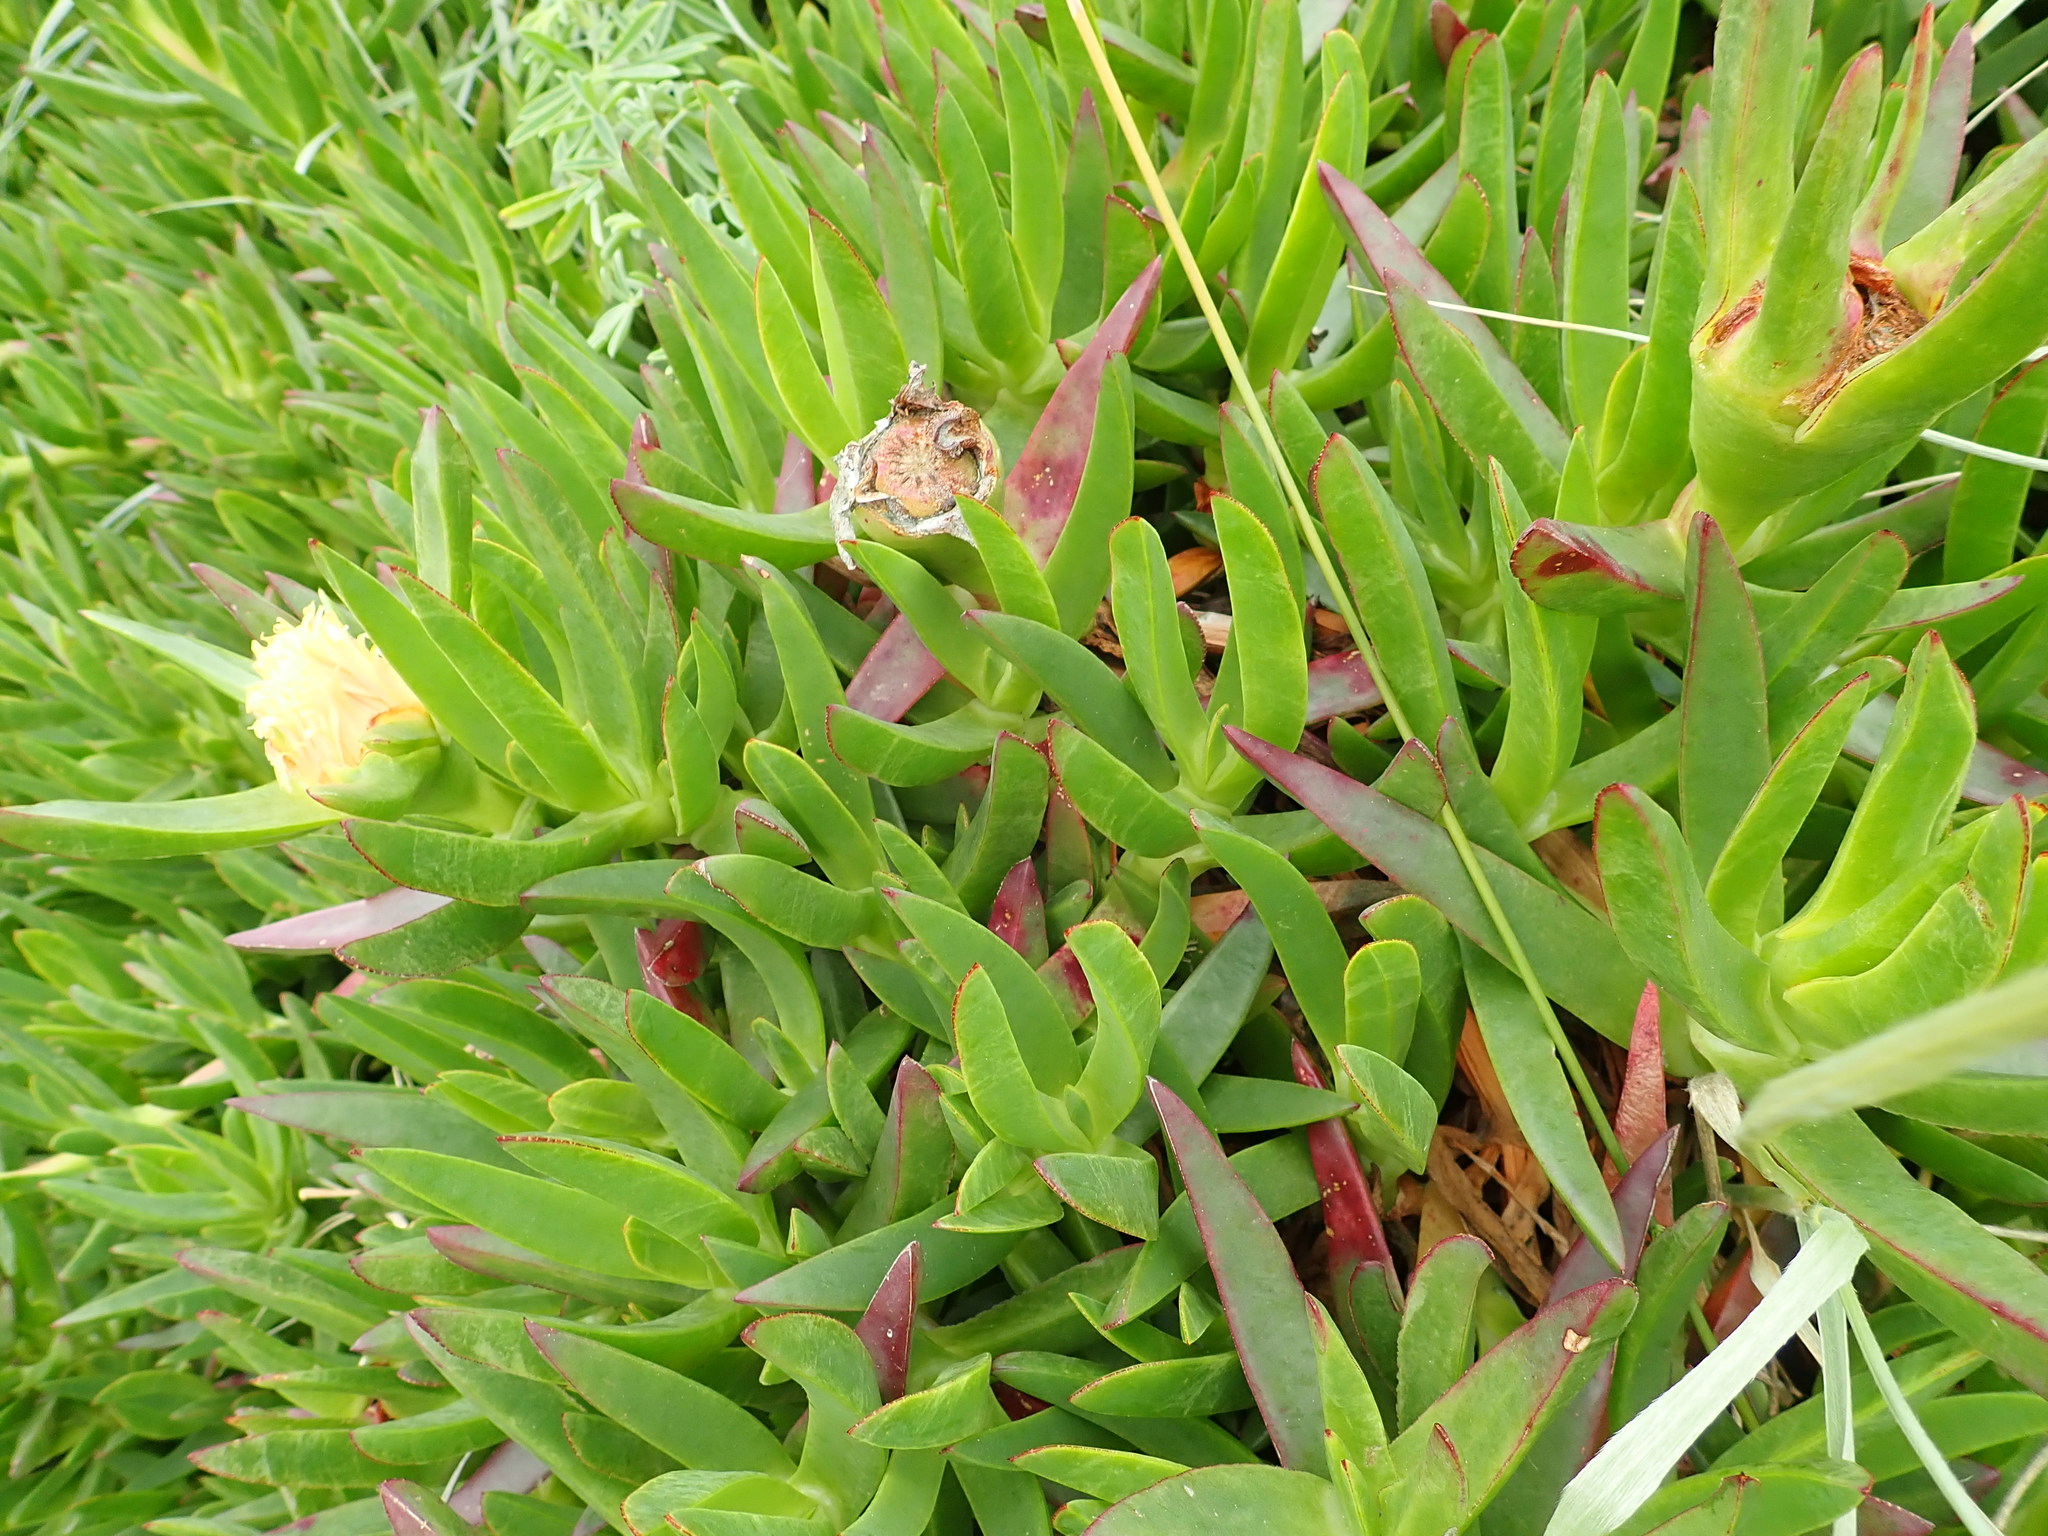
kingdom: Plantae
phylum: Tracheophyta
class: Magnoliopsida
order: Caryophyllales
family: Aizoaceae
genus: Carpobrotus
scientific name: Carpobrotus edulis
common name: Hottentot-fig
